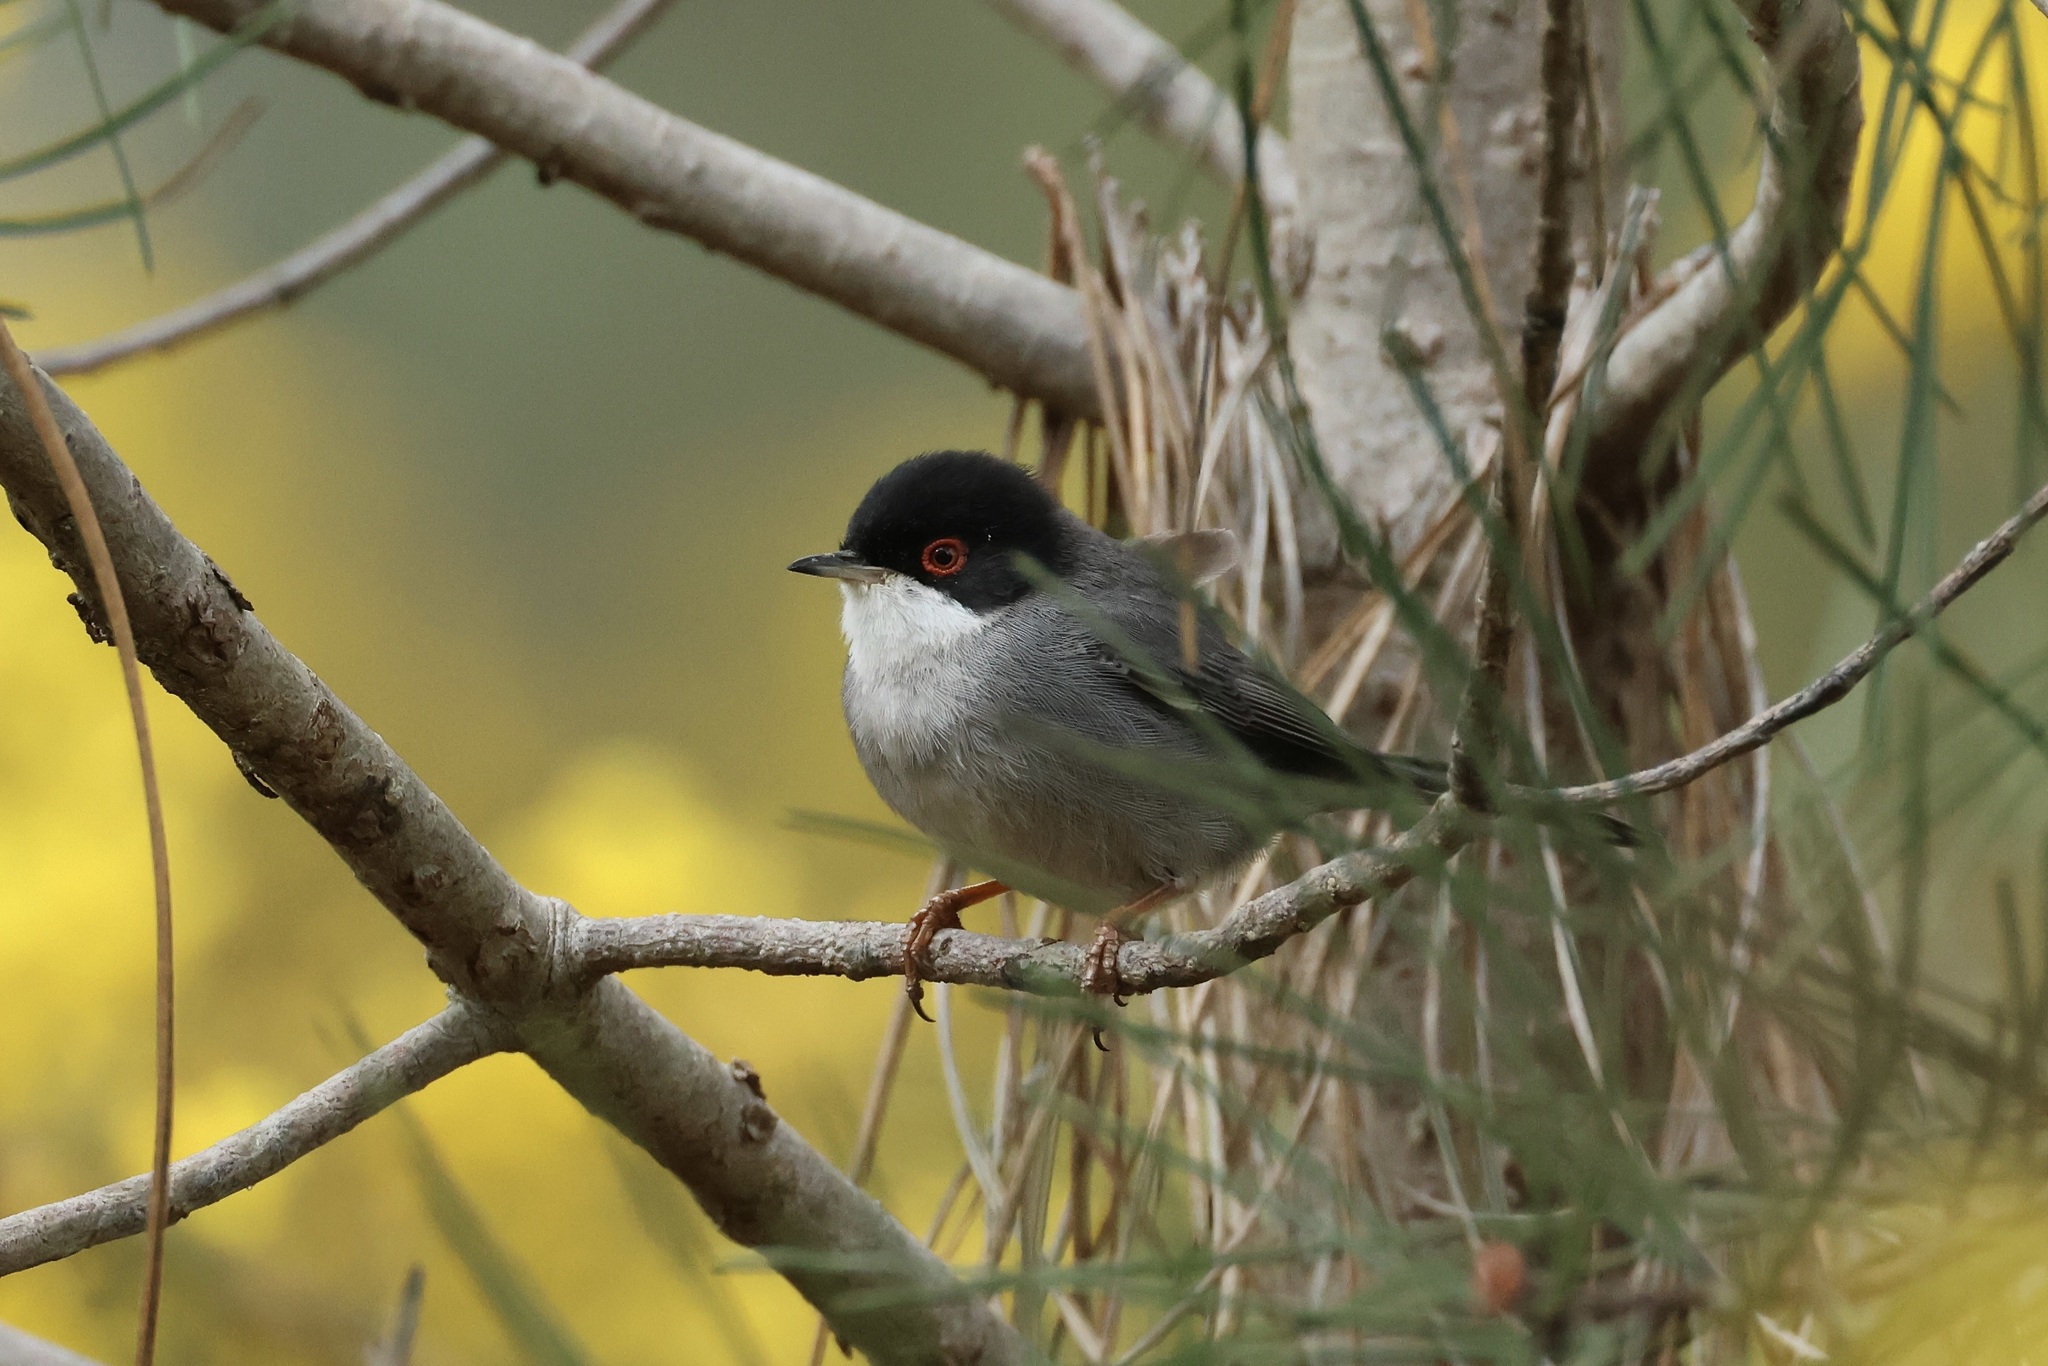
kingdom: Animalia
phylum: Chordata
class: Aves
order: Passeriformes
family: Sylviidae
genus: Curruca
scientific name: Curruca melanocephala
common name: Sardinian warbler
